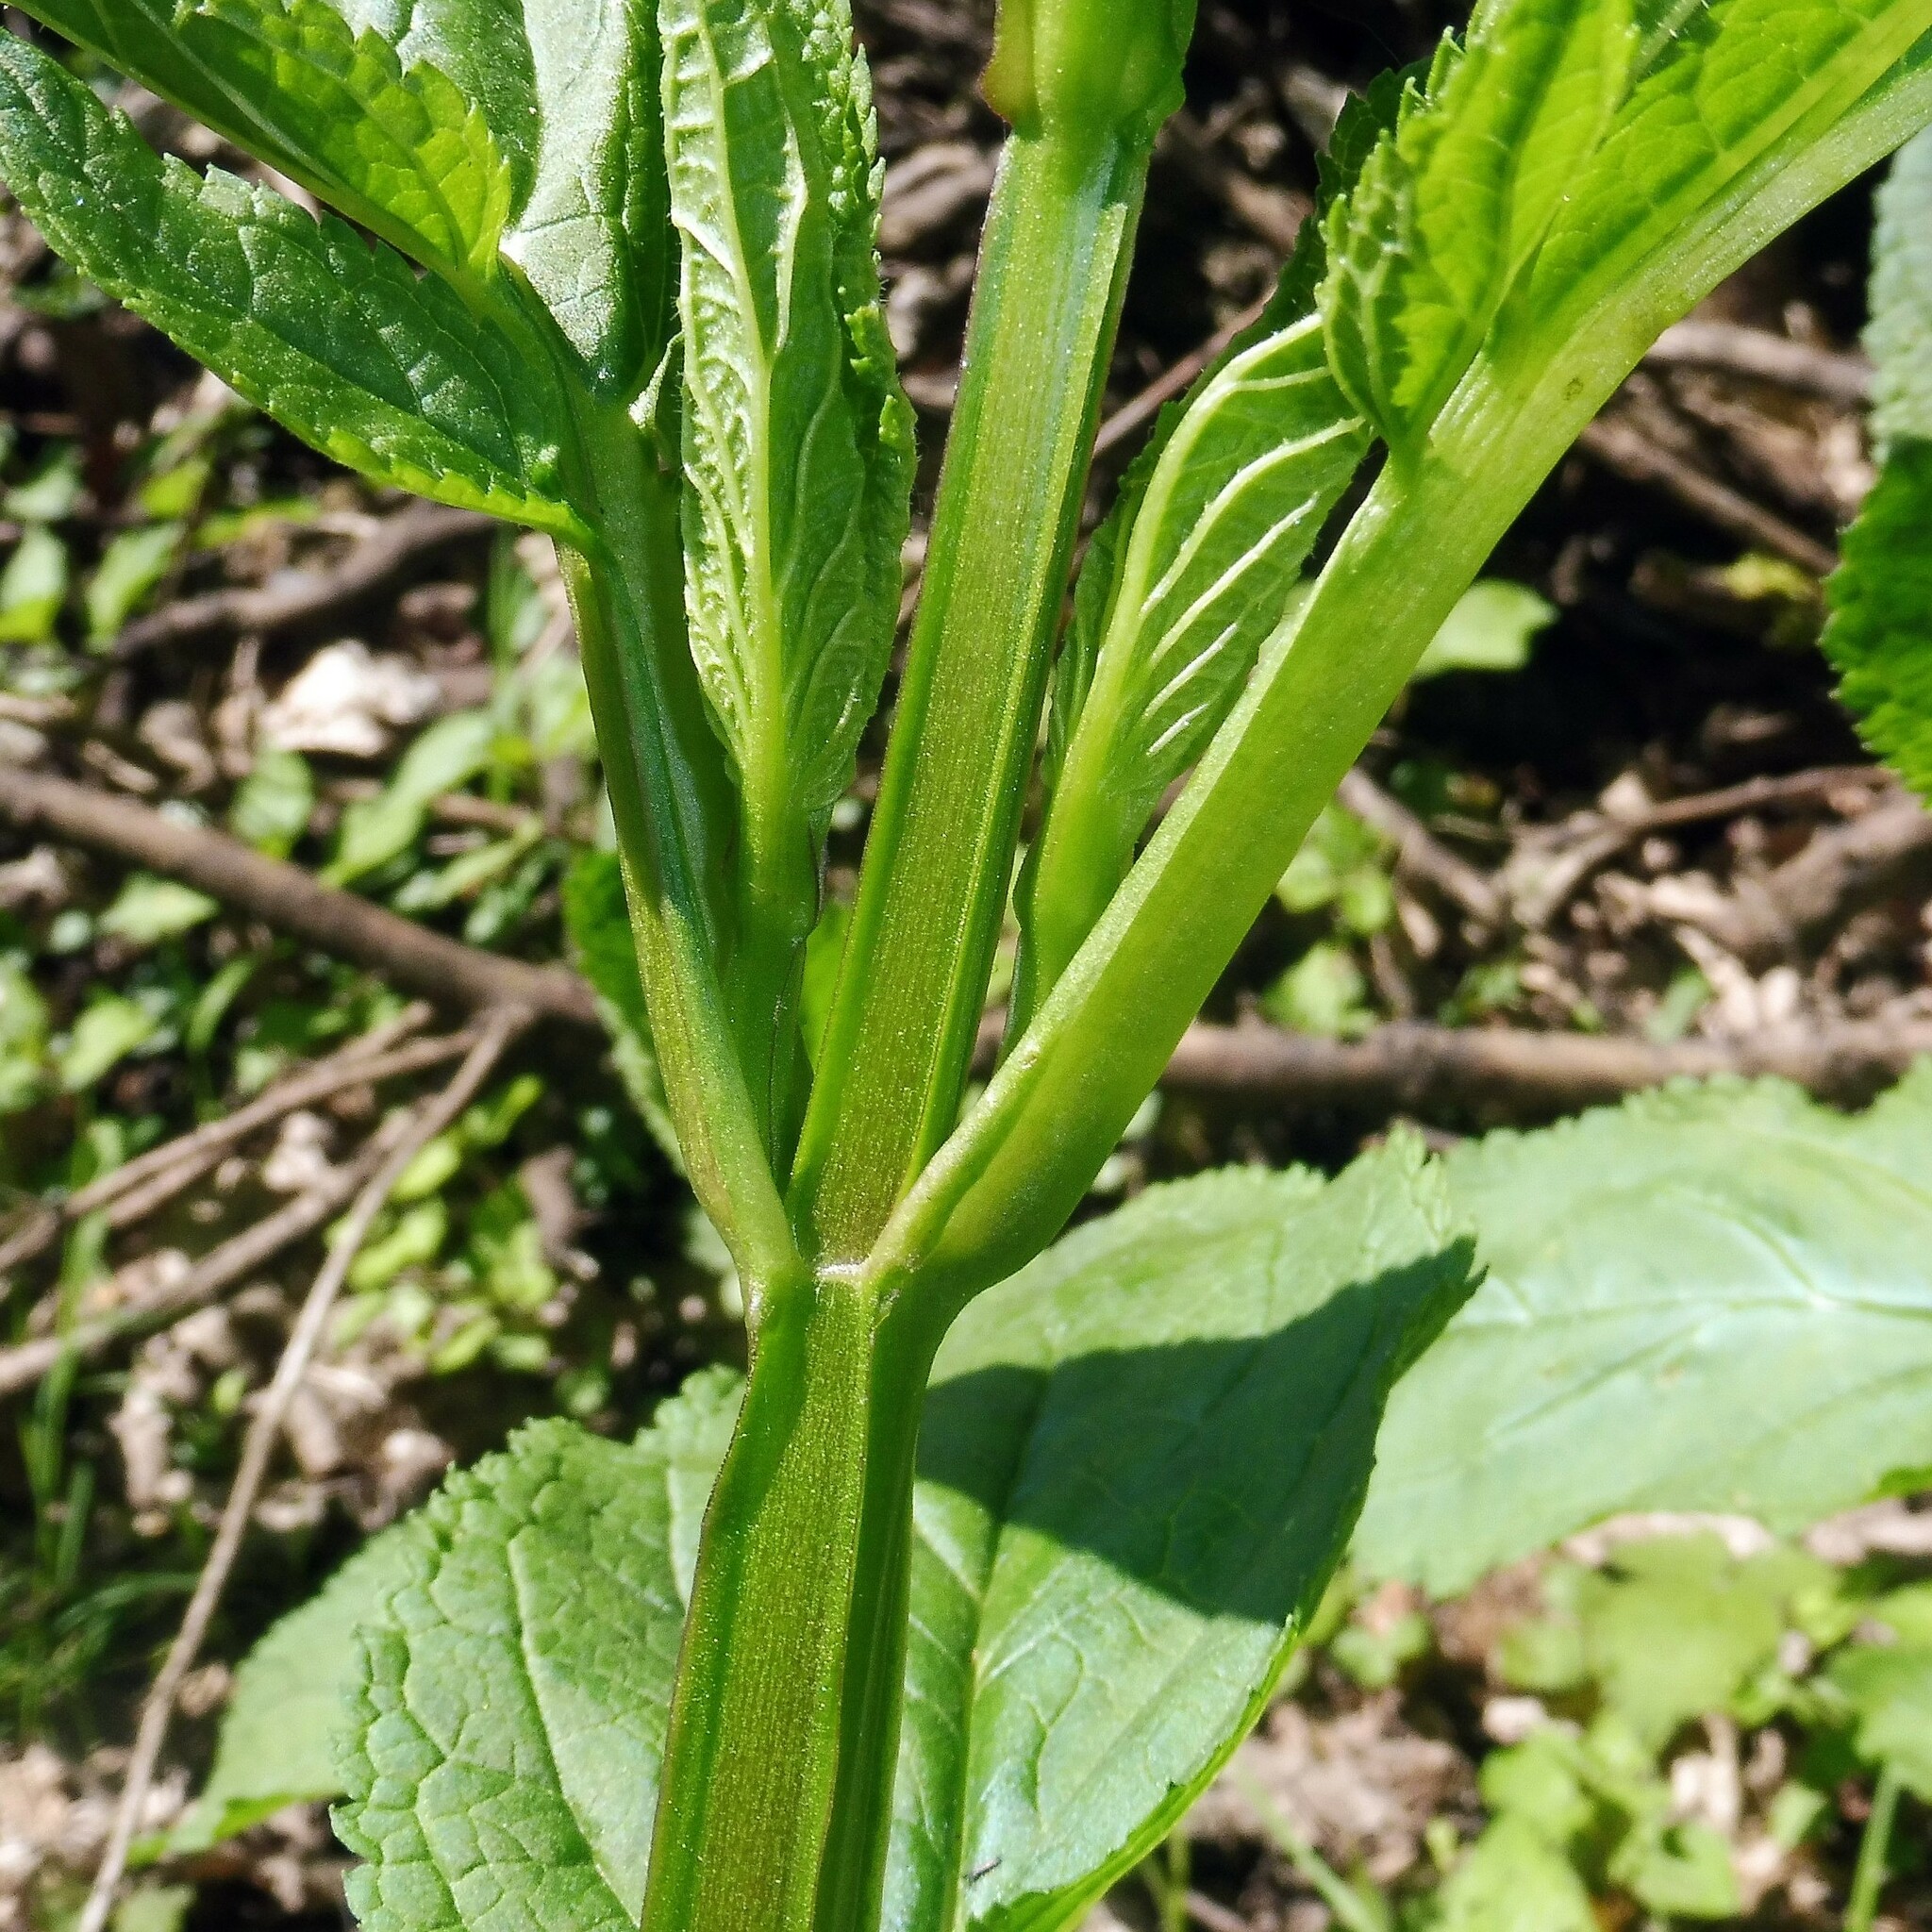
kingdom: Plantae
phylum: Tracheophyta
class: Magnoliopsida
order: Lamiales
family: Scrophulariaceae
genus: Scrophularia
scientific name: Scrophularia auriculata
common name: Water betony
